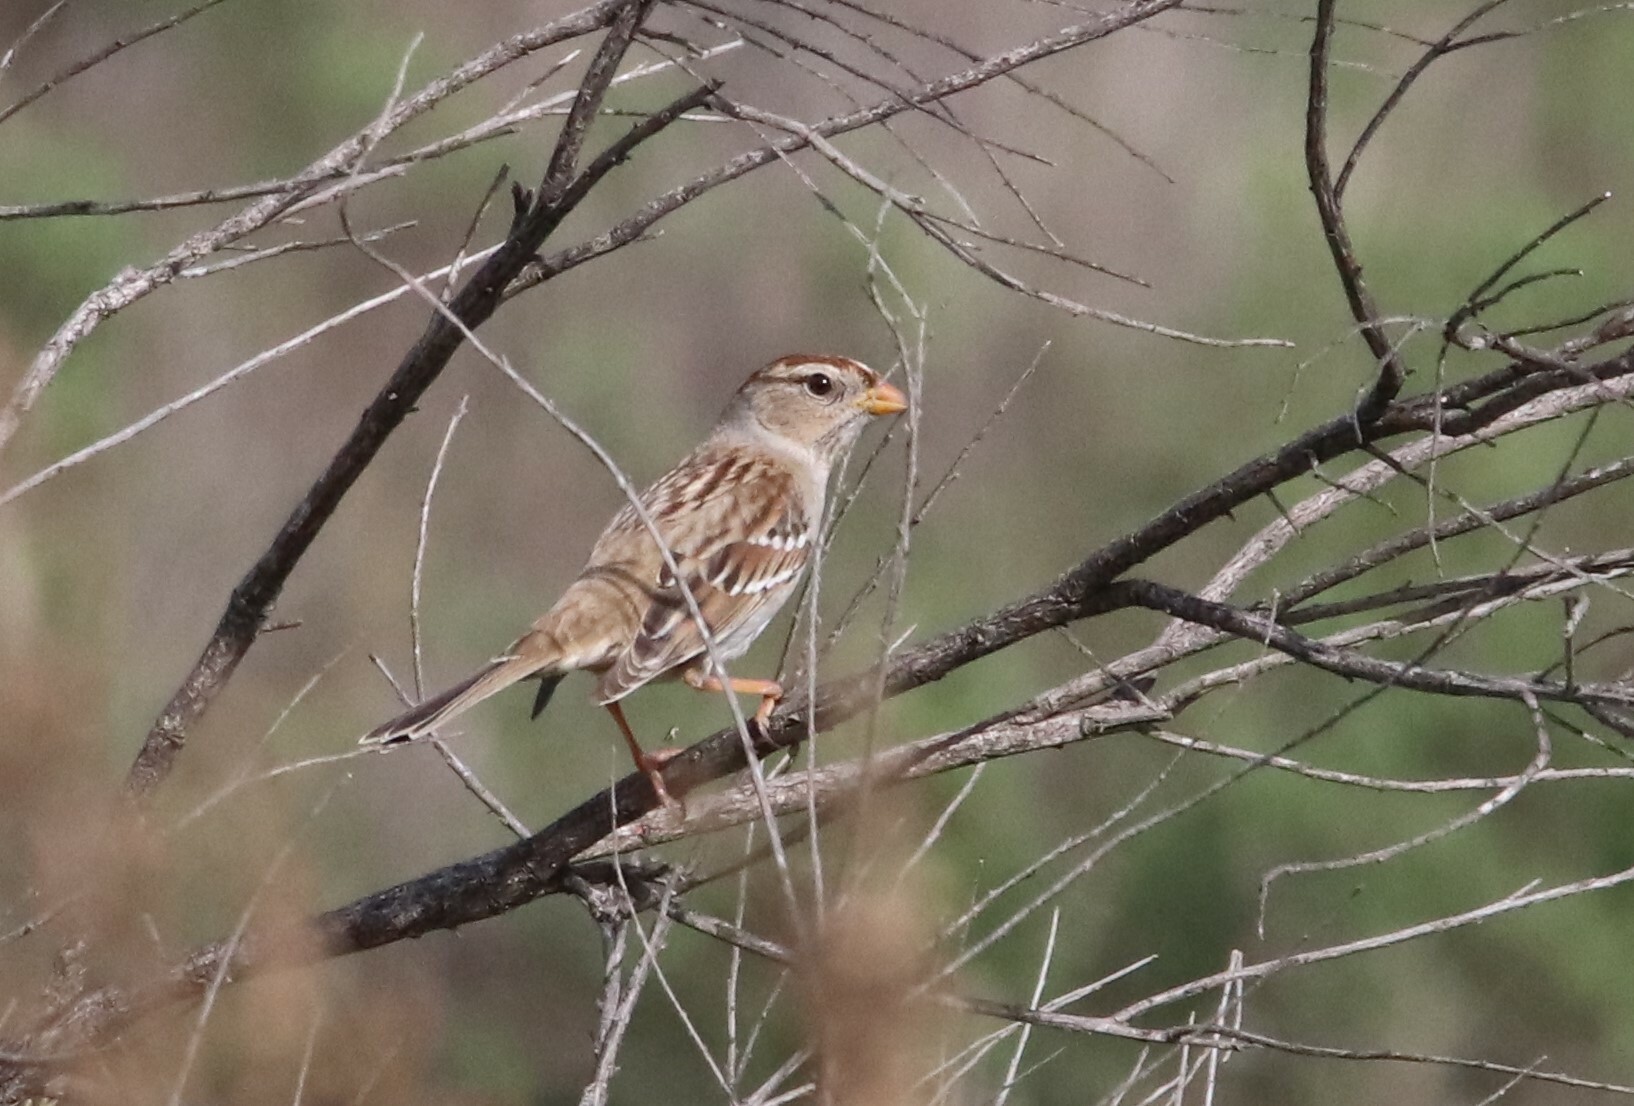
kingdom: Animalia
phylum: Chordata
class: Aves
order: Passeriformes
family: Passerellidae
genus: Zonotrichia
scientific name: Zonotrichia leucophrys
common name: White-crowned sparrow
